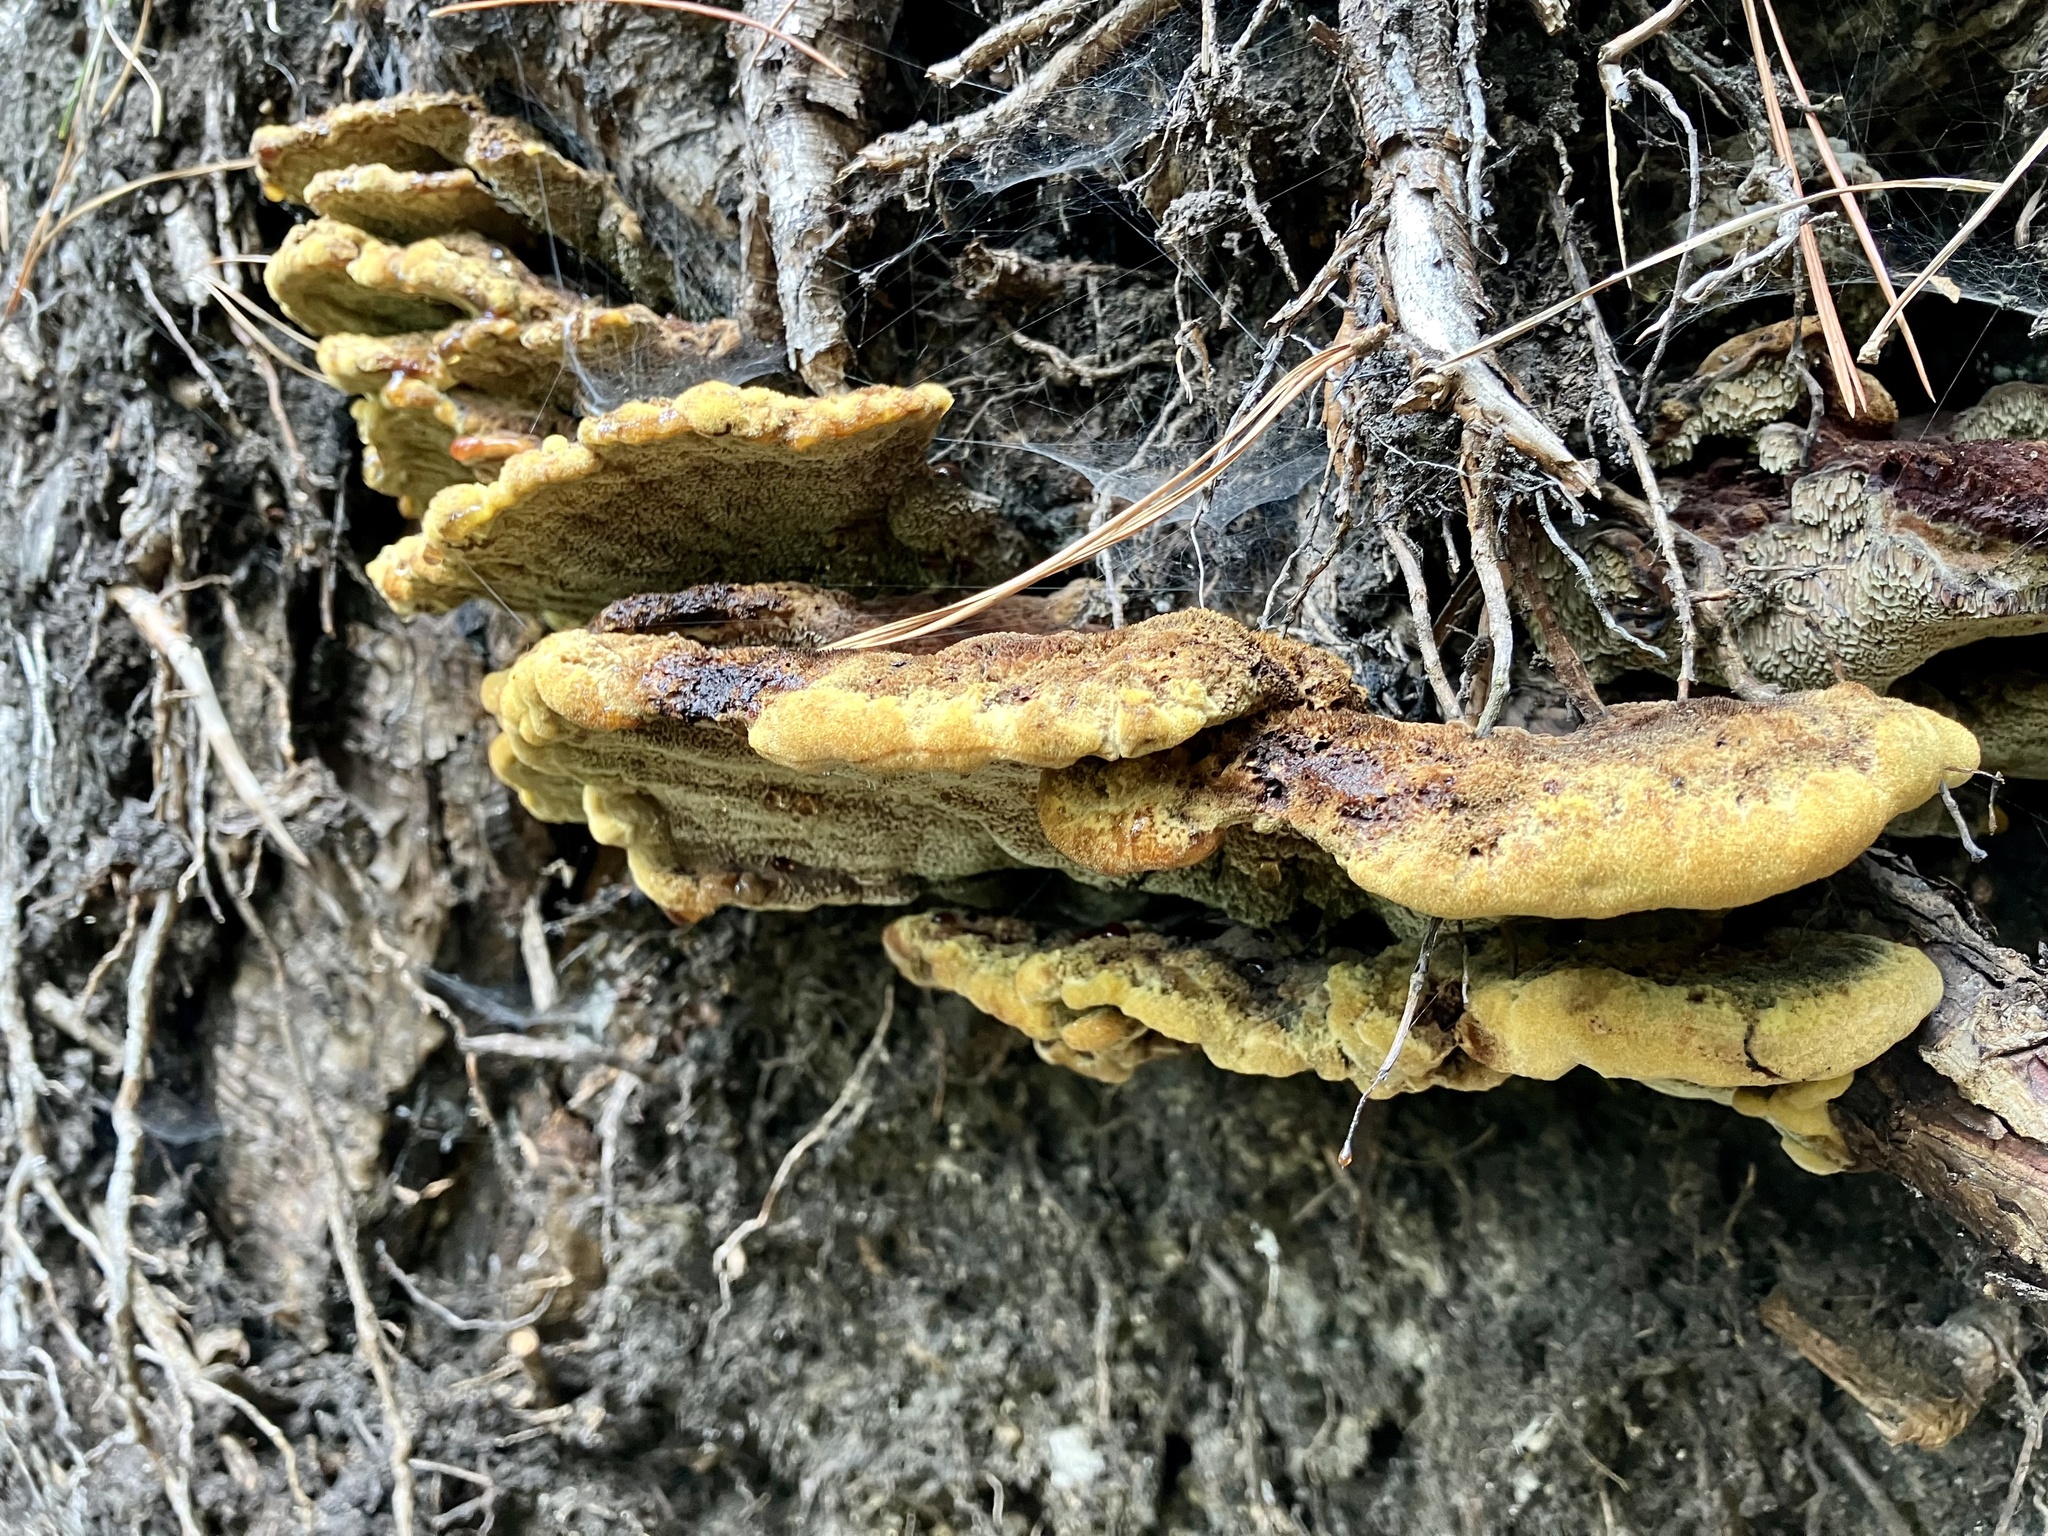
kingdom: Fungi
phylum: Basidiomycota
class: Agaricomycetes
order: Polyporales
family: Laetiporaceae
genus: Phaeolus
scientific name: Phaeolus schweinitzii
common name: Dyer's mazegill
